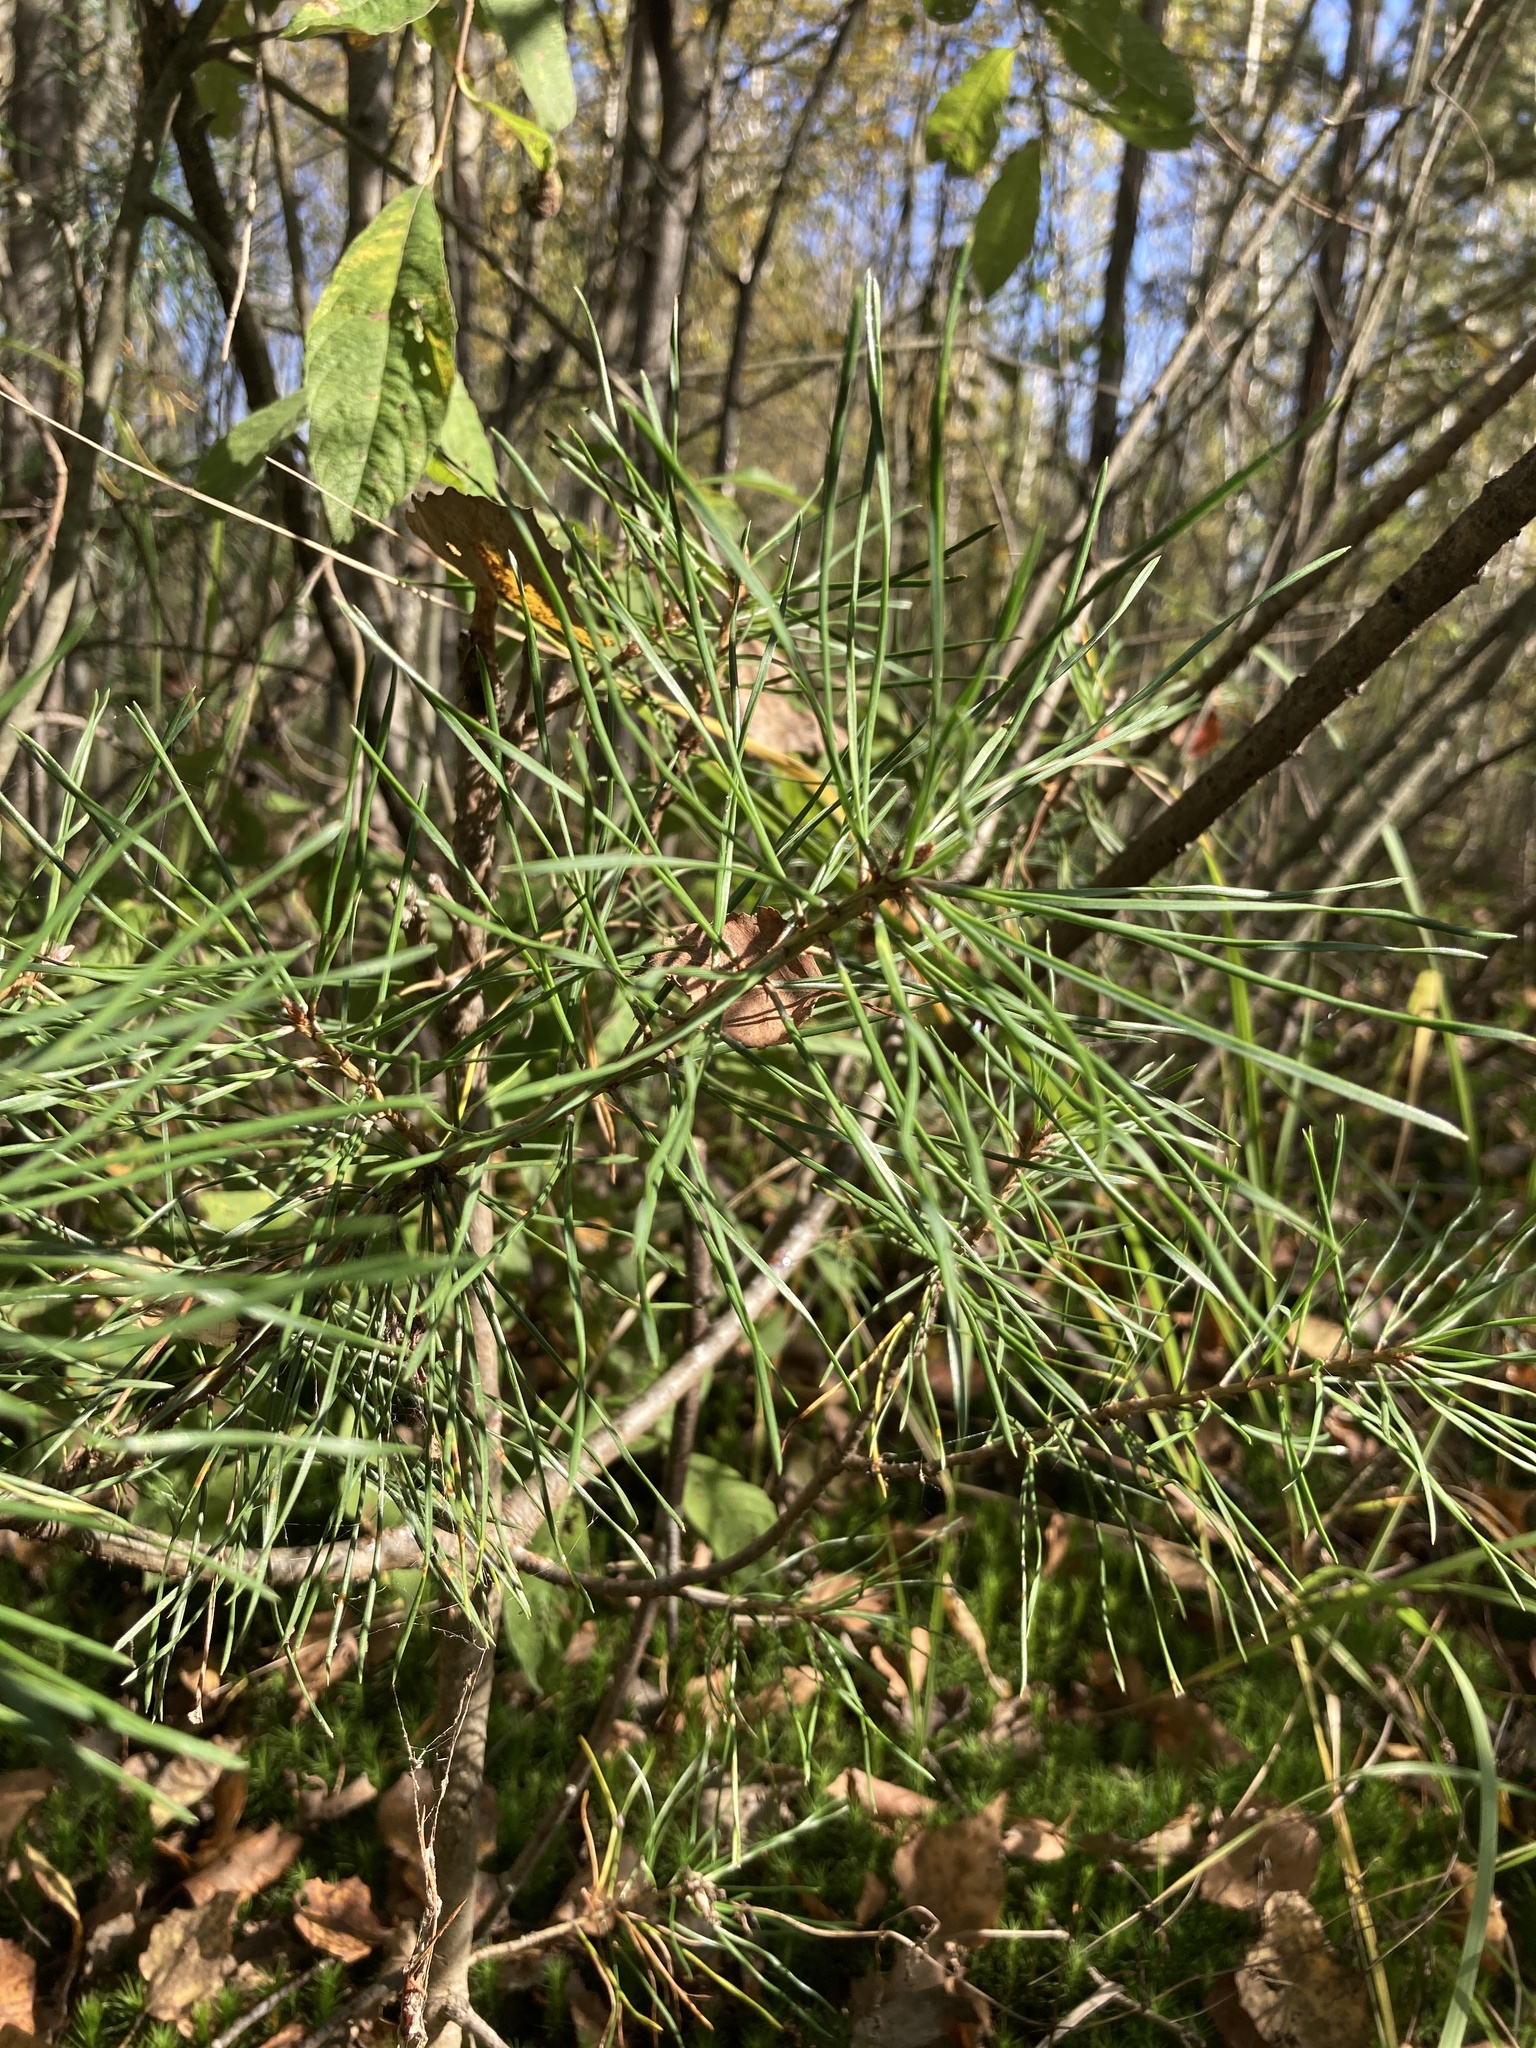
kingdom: Plantae
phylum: Tracheophyta
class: Pinopsida
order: Pinales
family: Pinaceae
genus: Pinus
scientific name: Pinus sylvestris
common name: Scots pine
